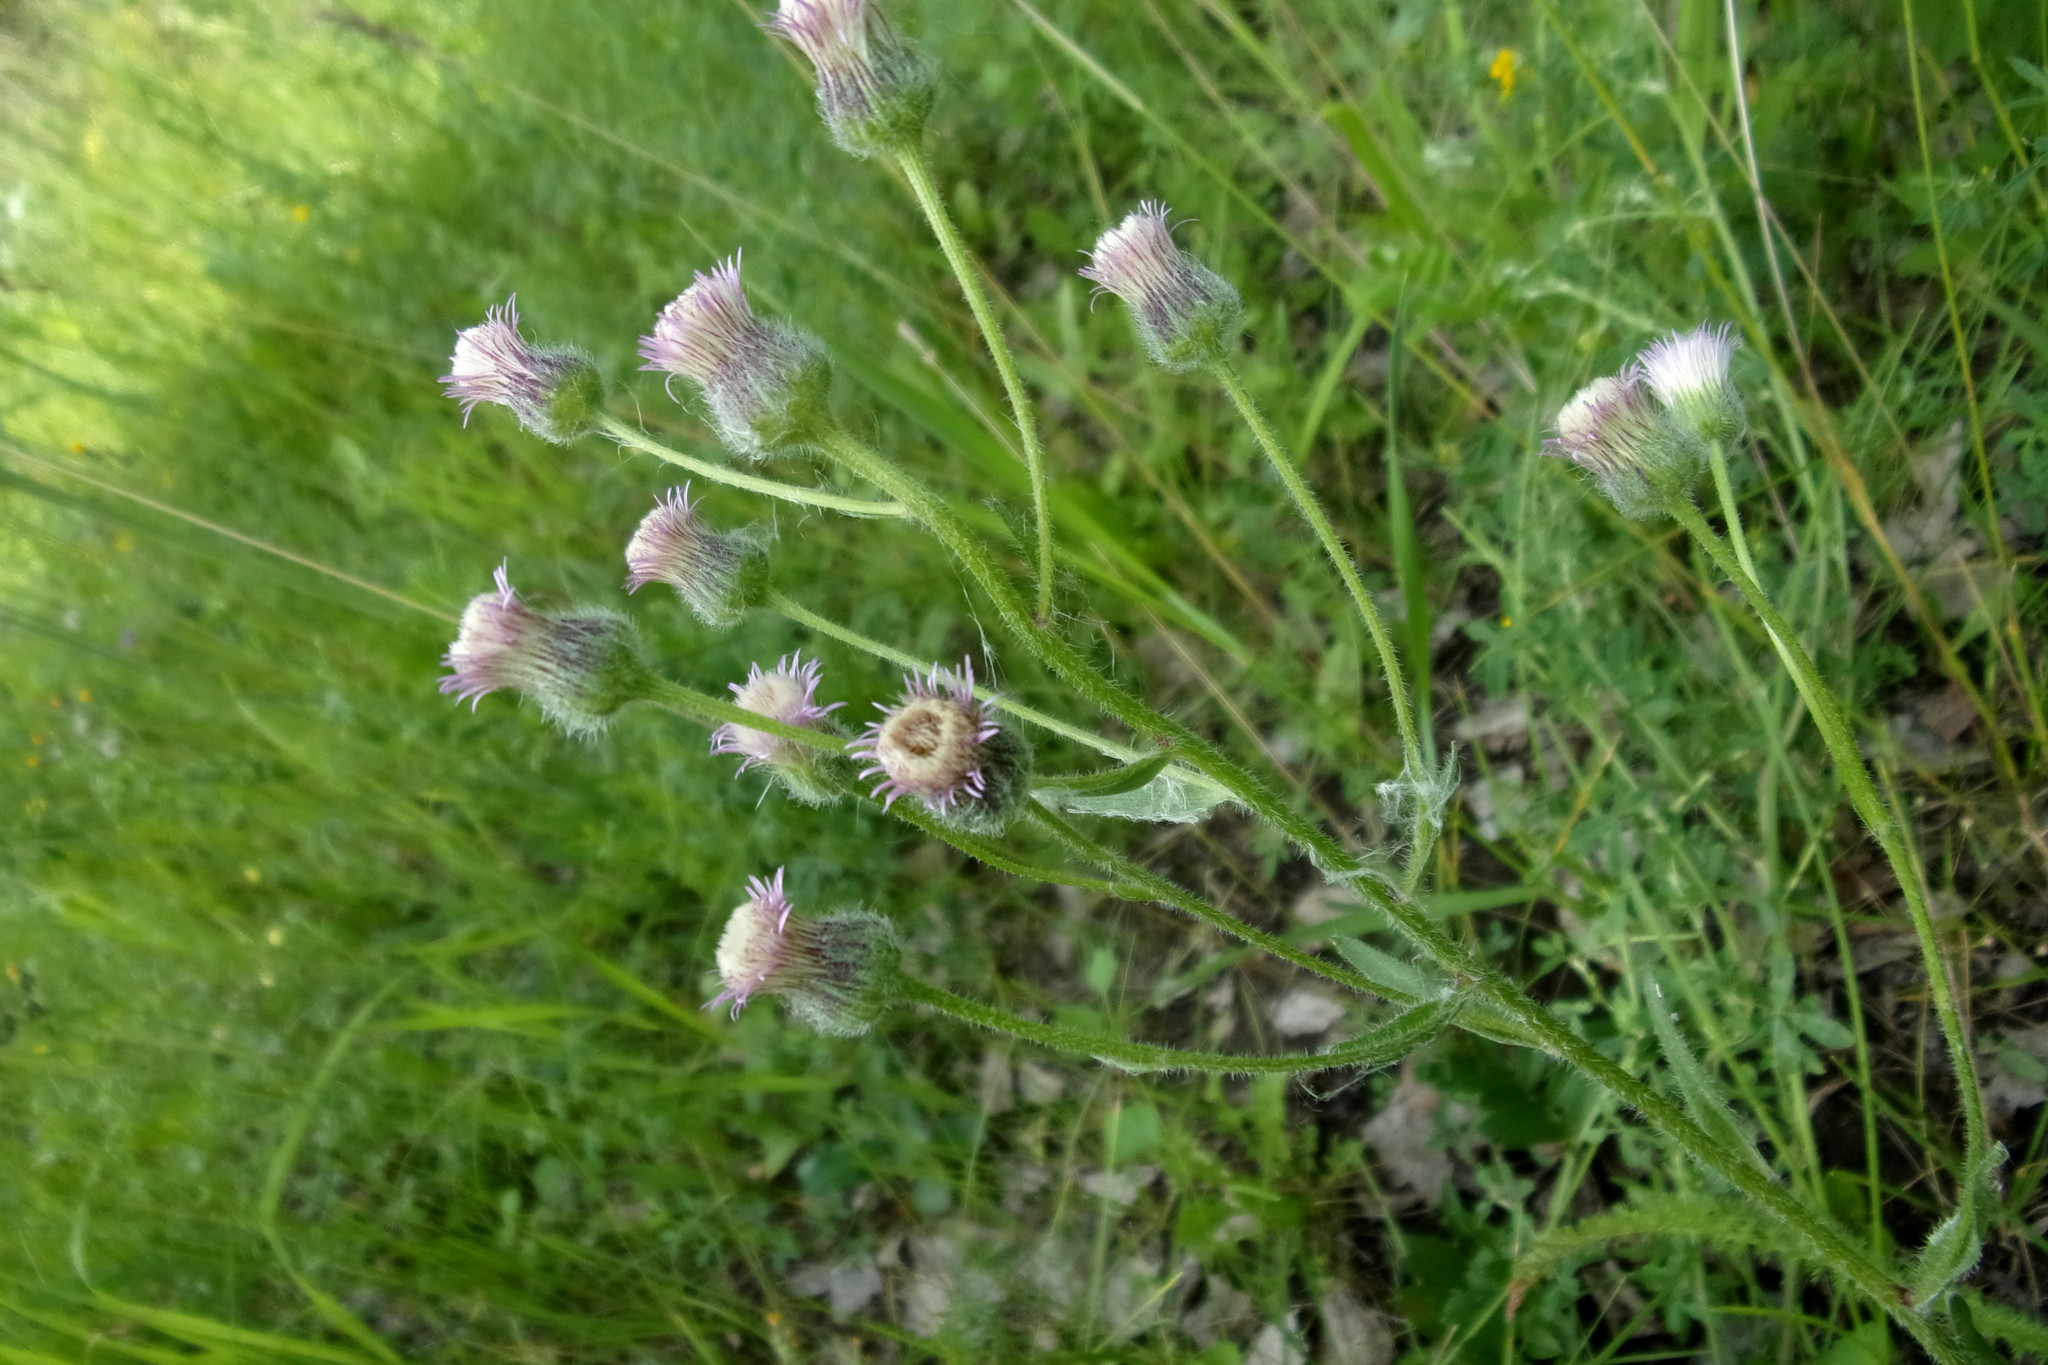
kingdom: Plantae
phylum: Tracheophyta
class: Magnoliopsida
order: Asterales
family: Asteraceae
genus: Erigeron
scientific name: Erigeron acris
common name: Blue fleabane
